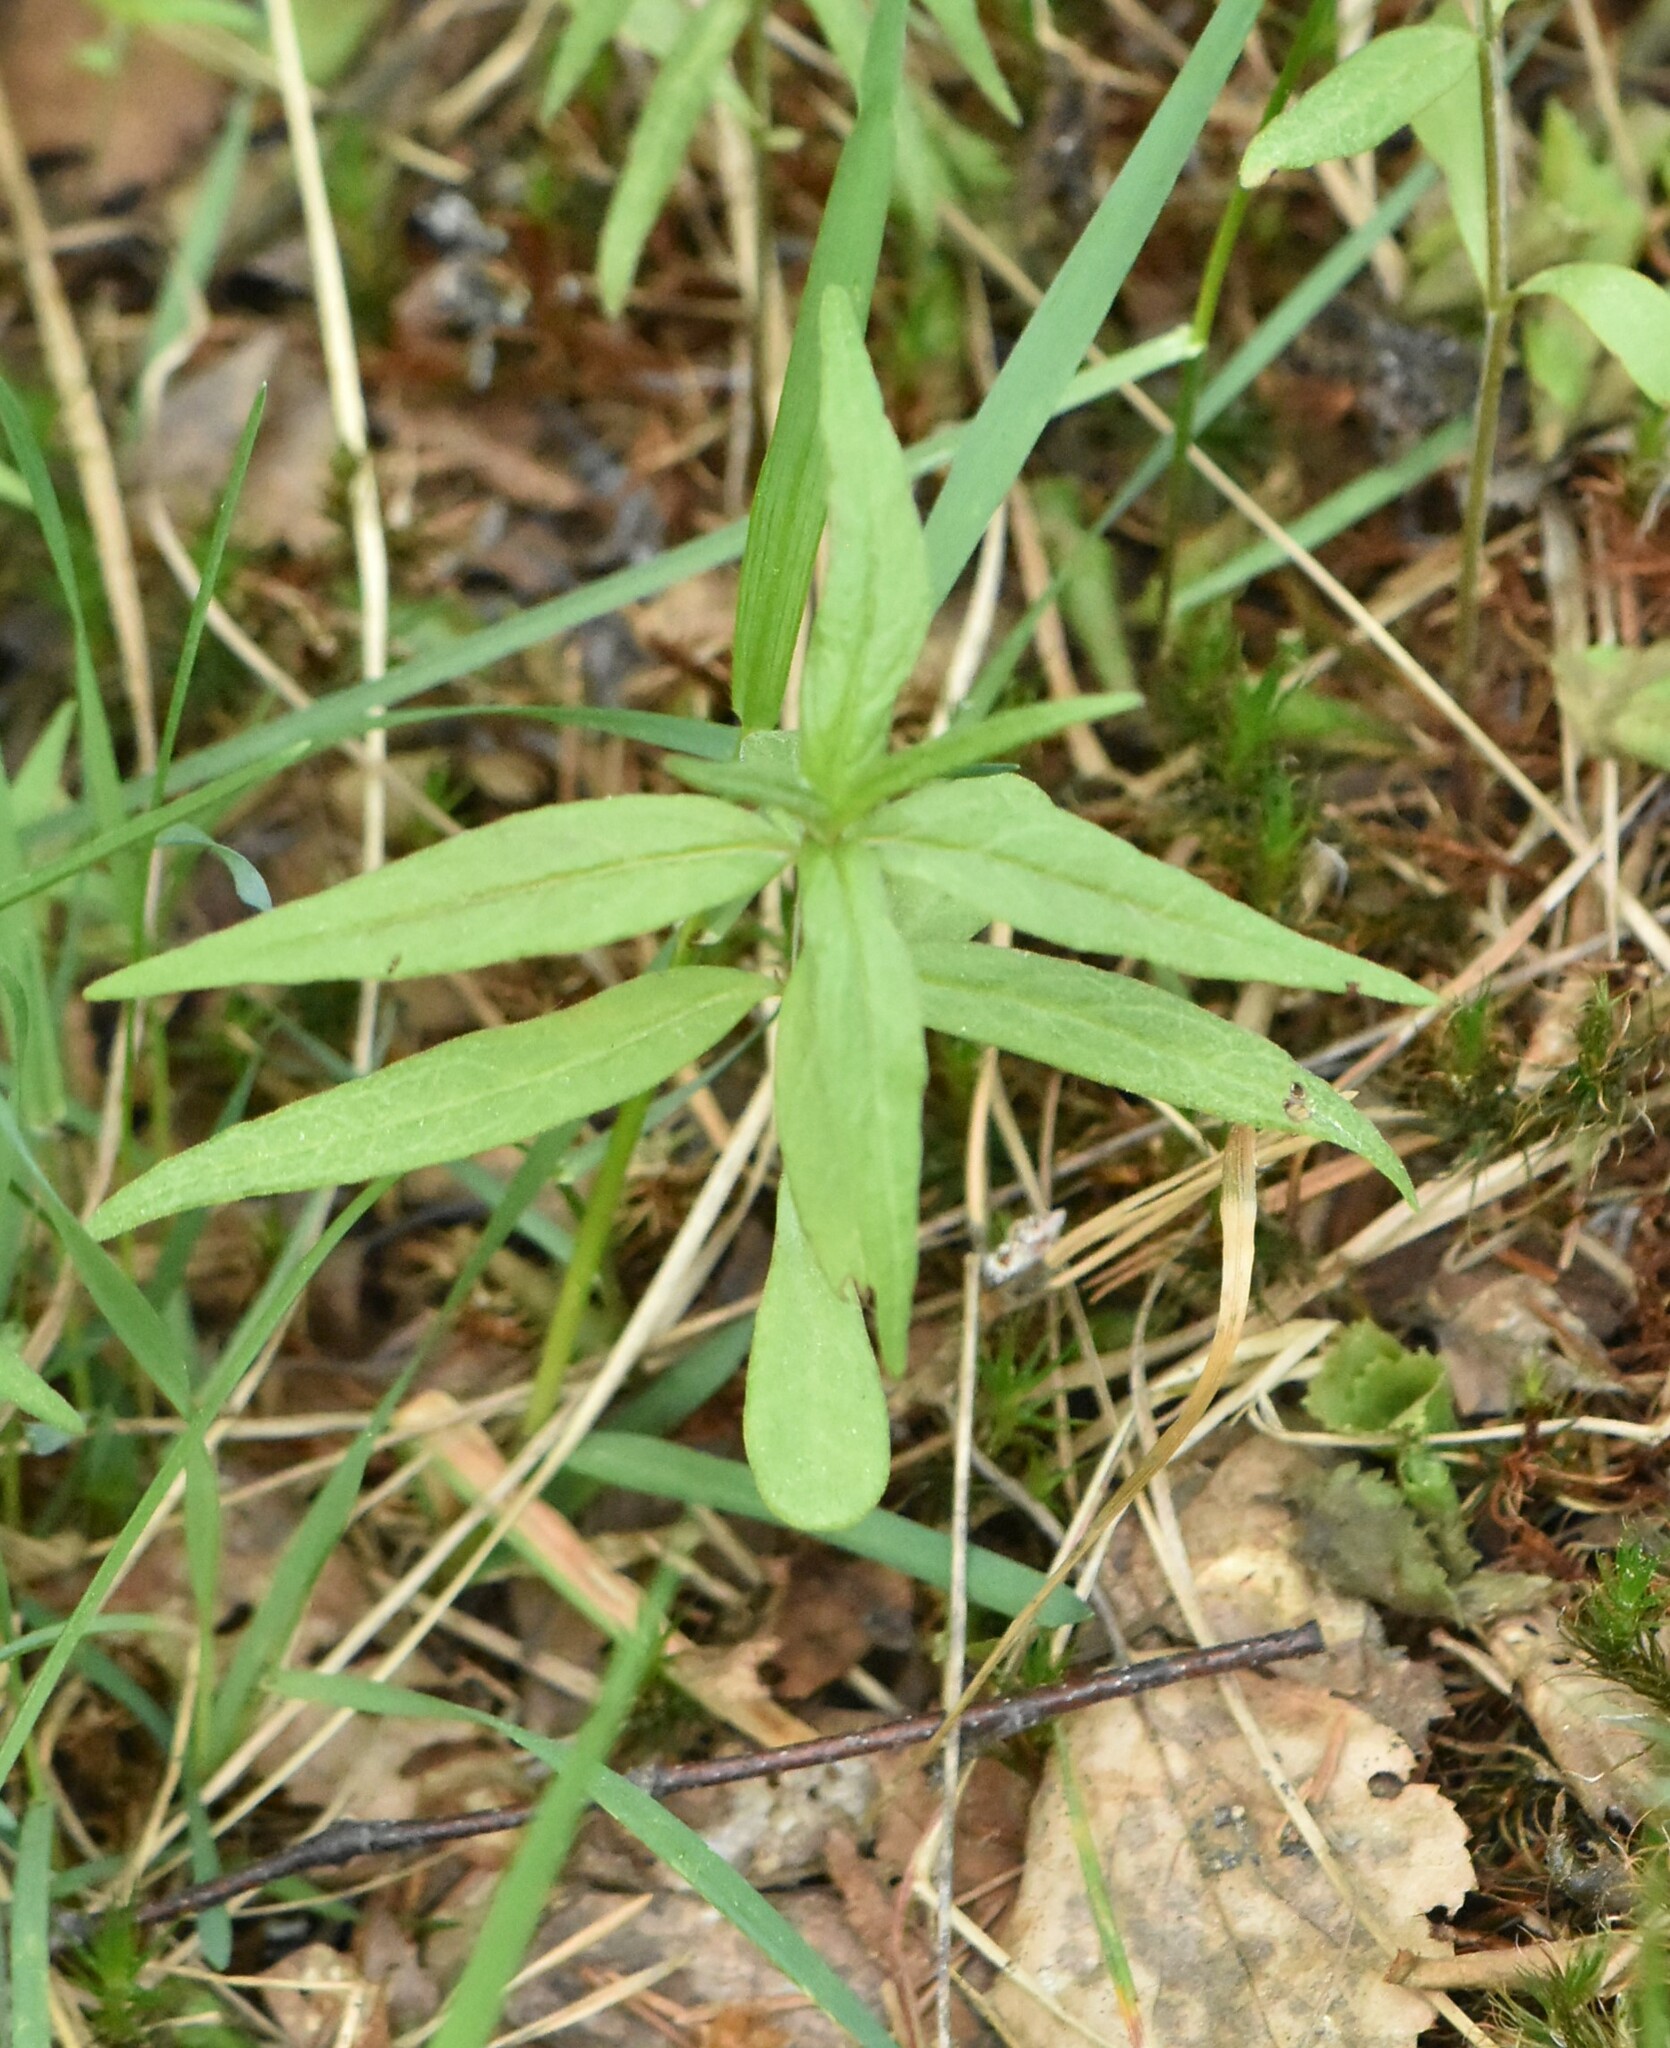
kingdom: Plantae
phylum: Tracheophyta
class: Magnoliopsida
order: Ericales
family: Primulaceae
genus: Lysimachia
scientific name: Lysimachia thyrsiflora
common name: Tufted loosestrife
